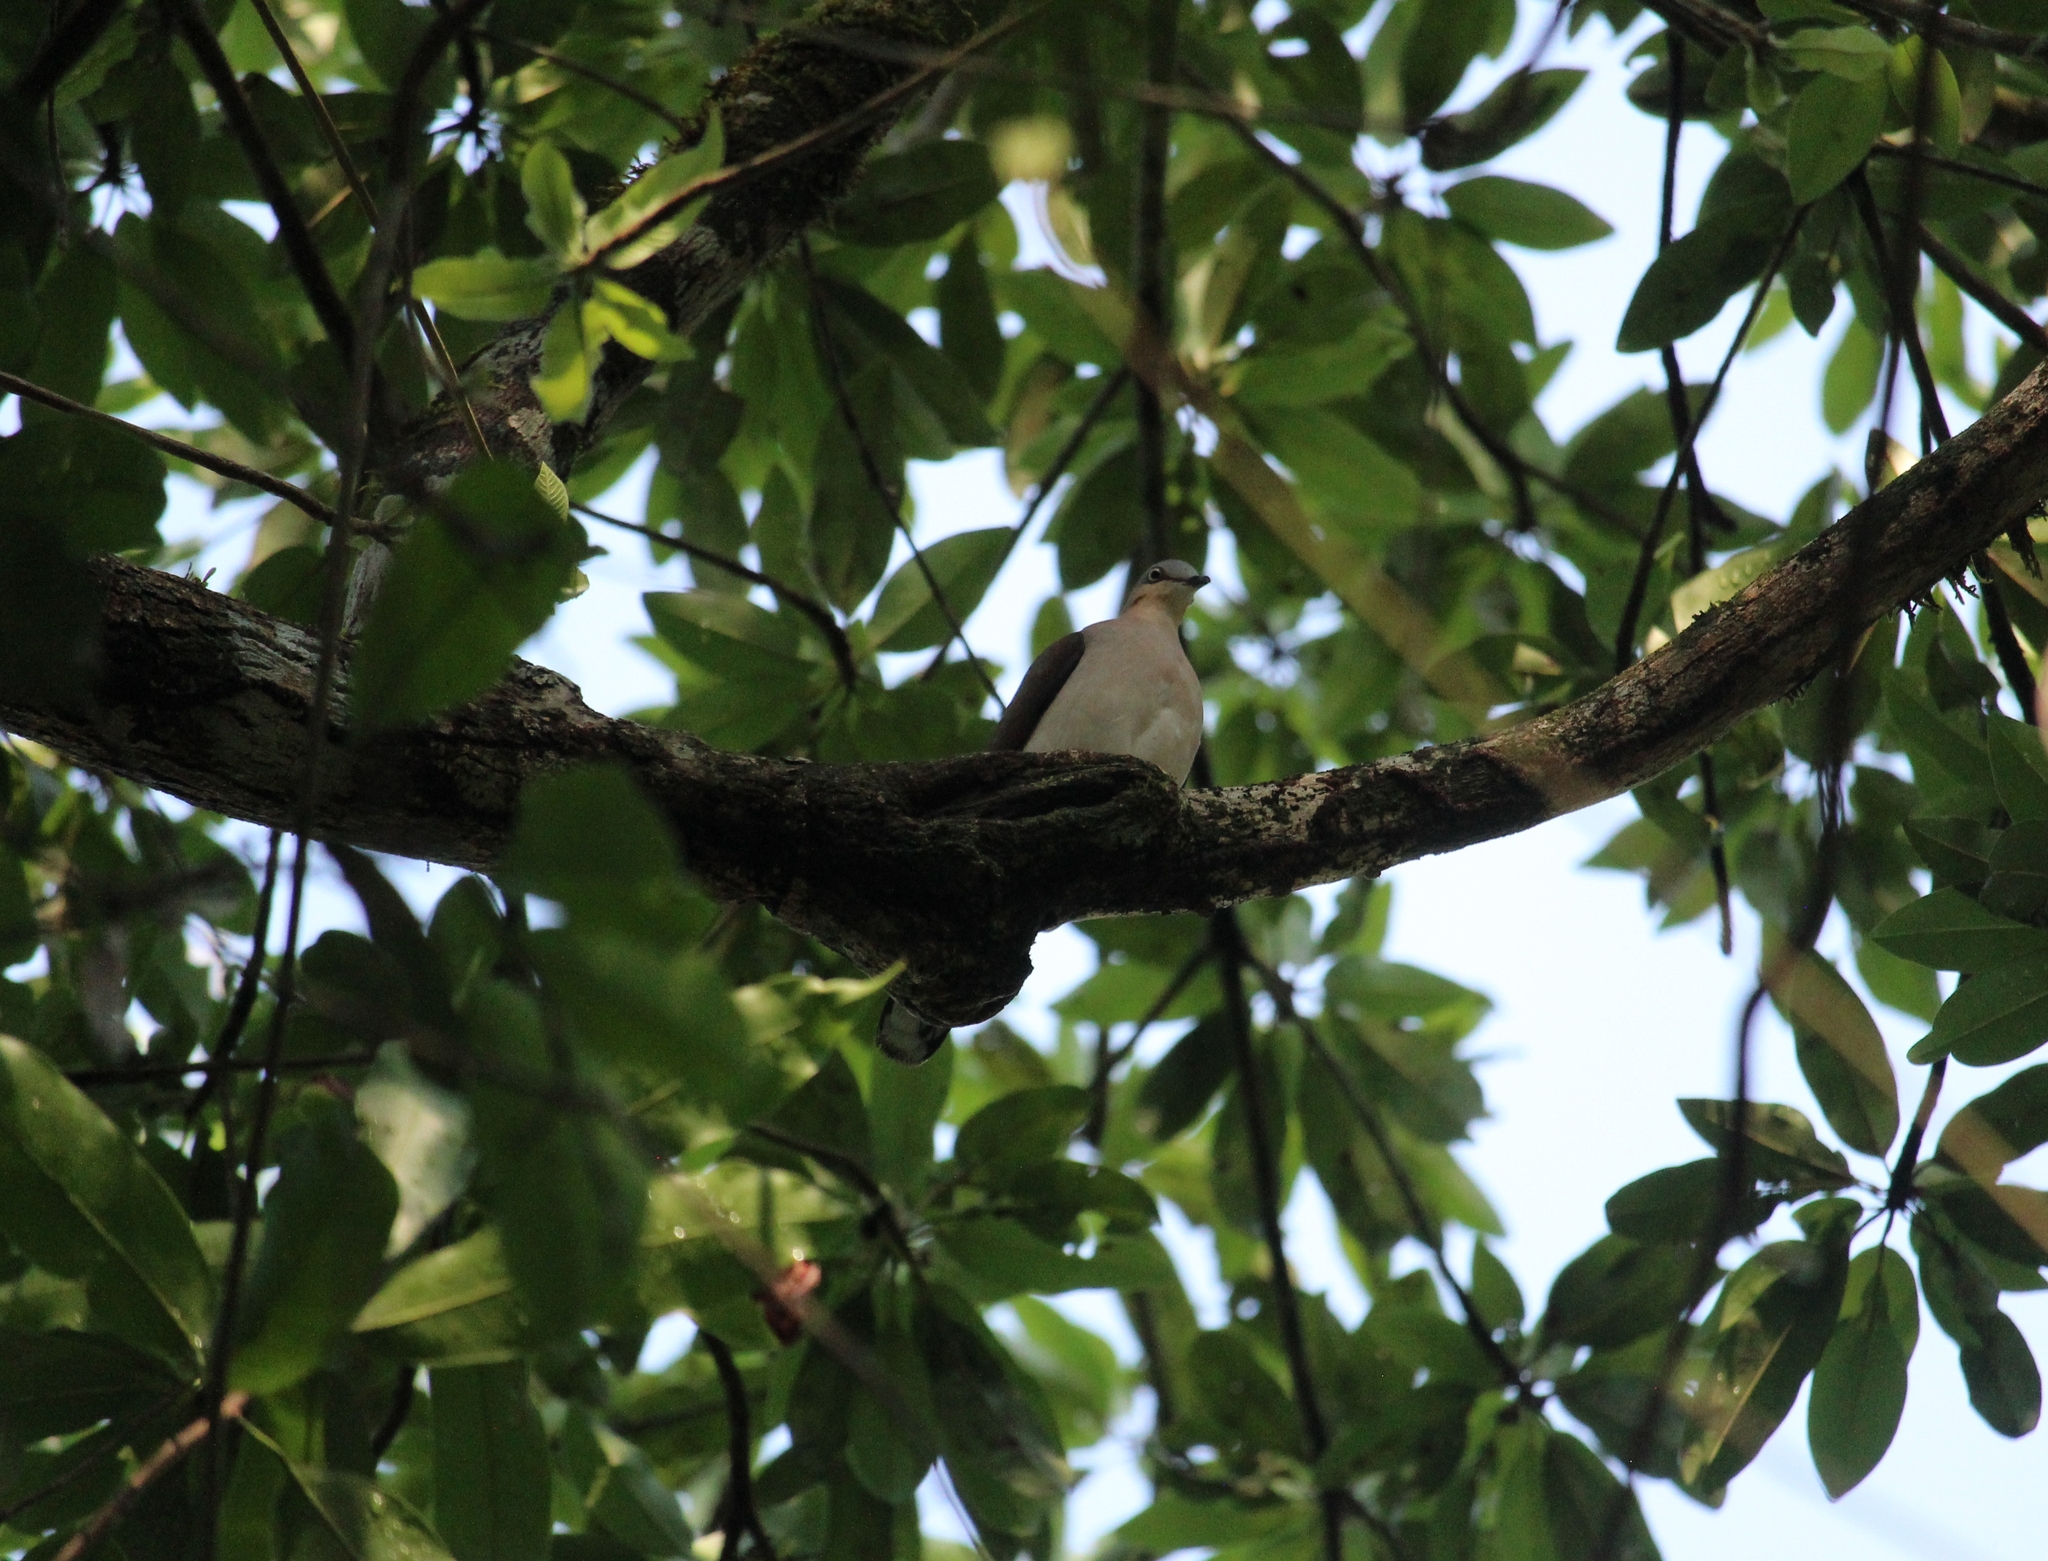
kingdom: Animalia
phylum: Chordata
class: Aves
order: Columbiformes
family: Columbidae
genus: Leptotila
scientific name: Leptotila verreauxi
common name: White-tipped dove
